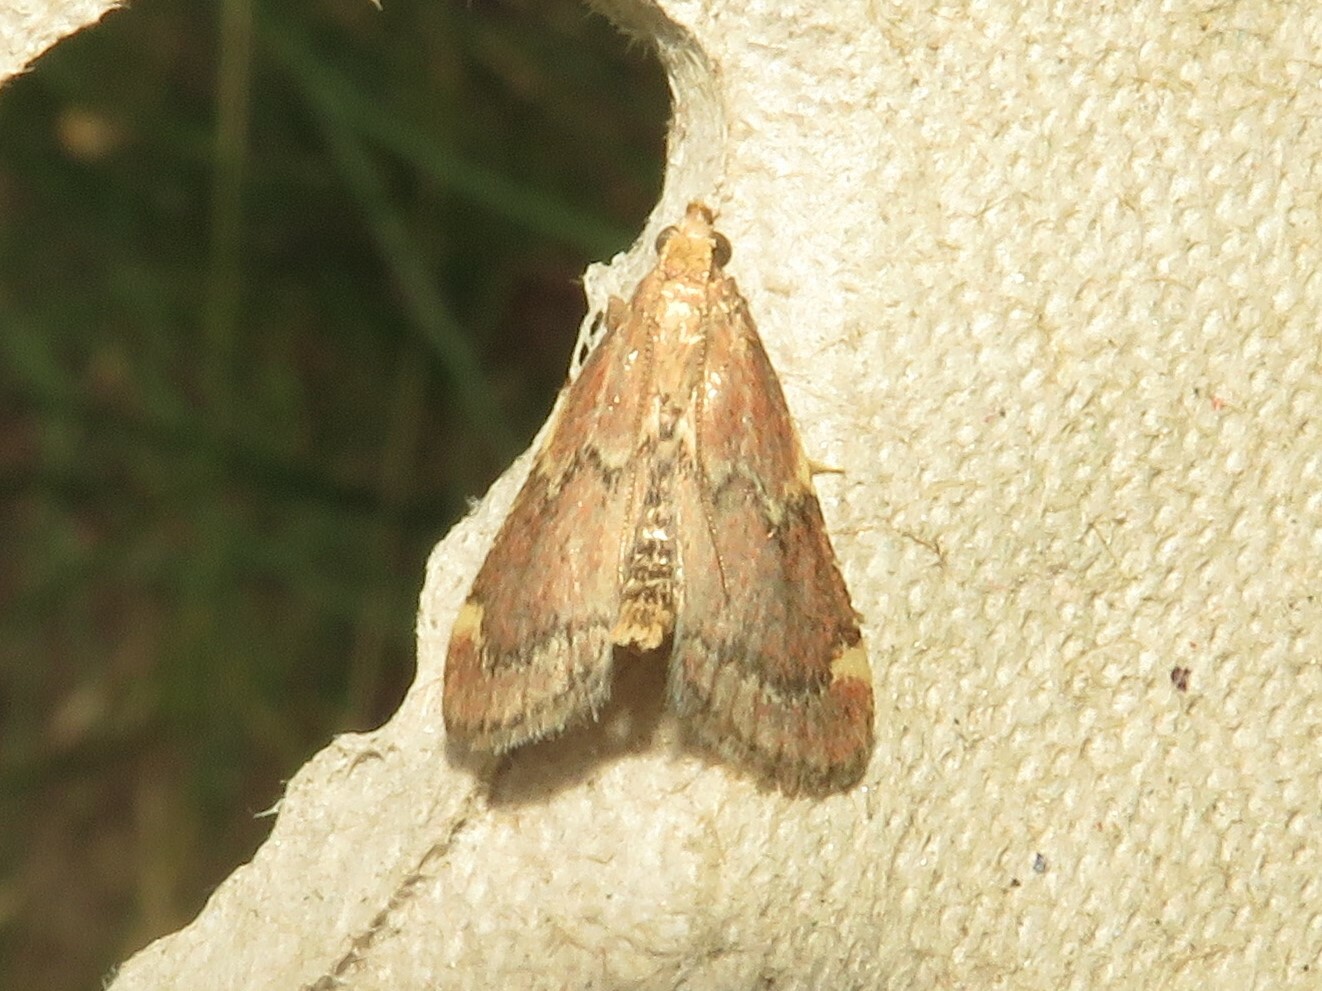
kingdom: Animalia
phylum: Arthropoda
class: Insecta
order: Lepidoptera
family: Pyralidae
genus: Hypsopygia
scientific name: Hypsopygia intermedialis
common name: Red-shawled moth
